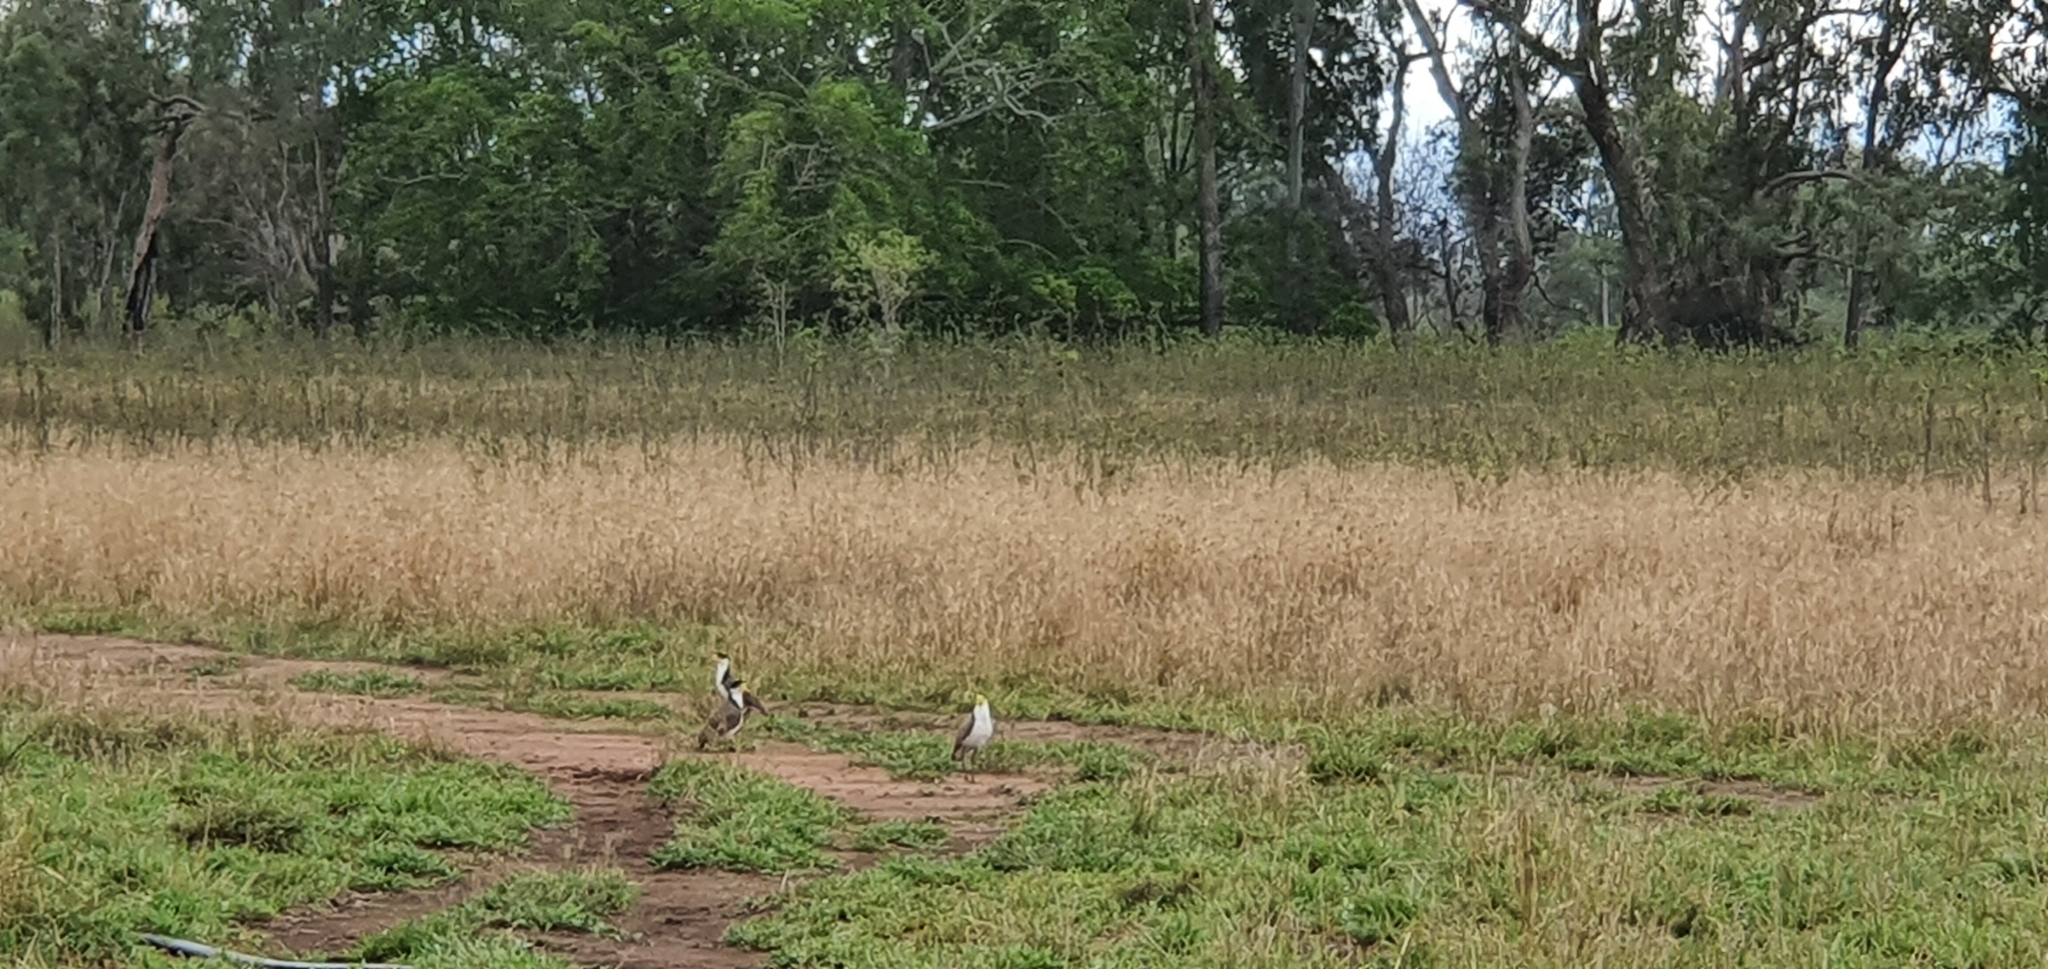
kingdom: Animalia
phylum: Chordata
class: Aves
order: Charadriiformes
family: Charadriidae
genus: Vanellus
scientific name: Vanellus miles
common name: Masked lapwing
